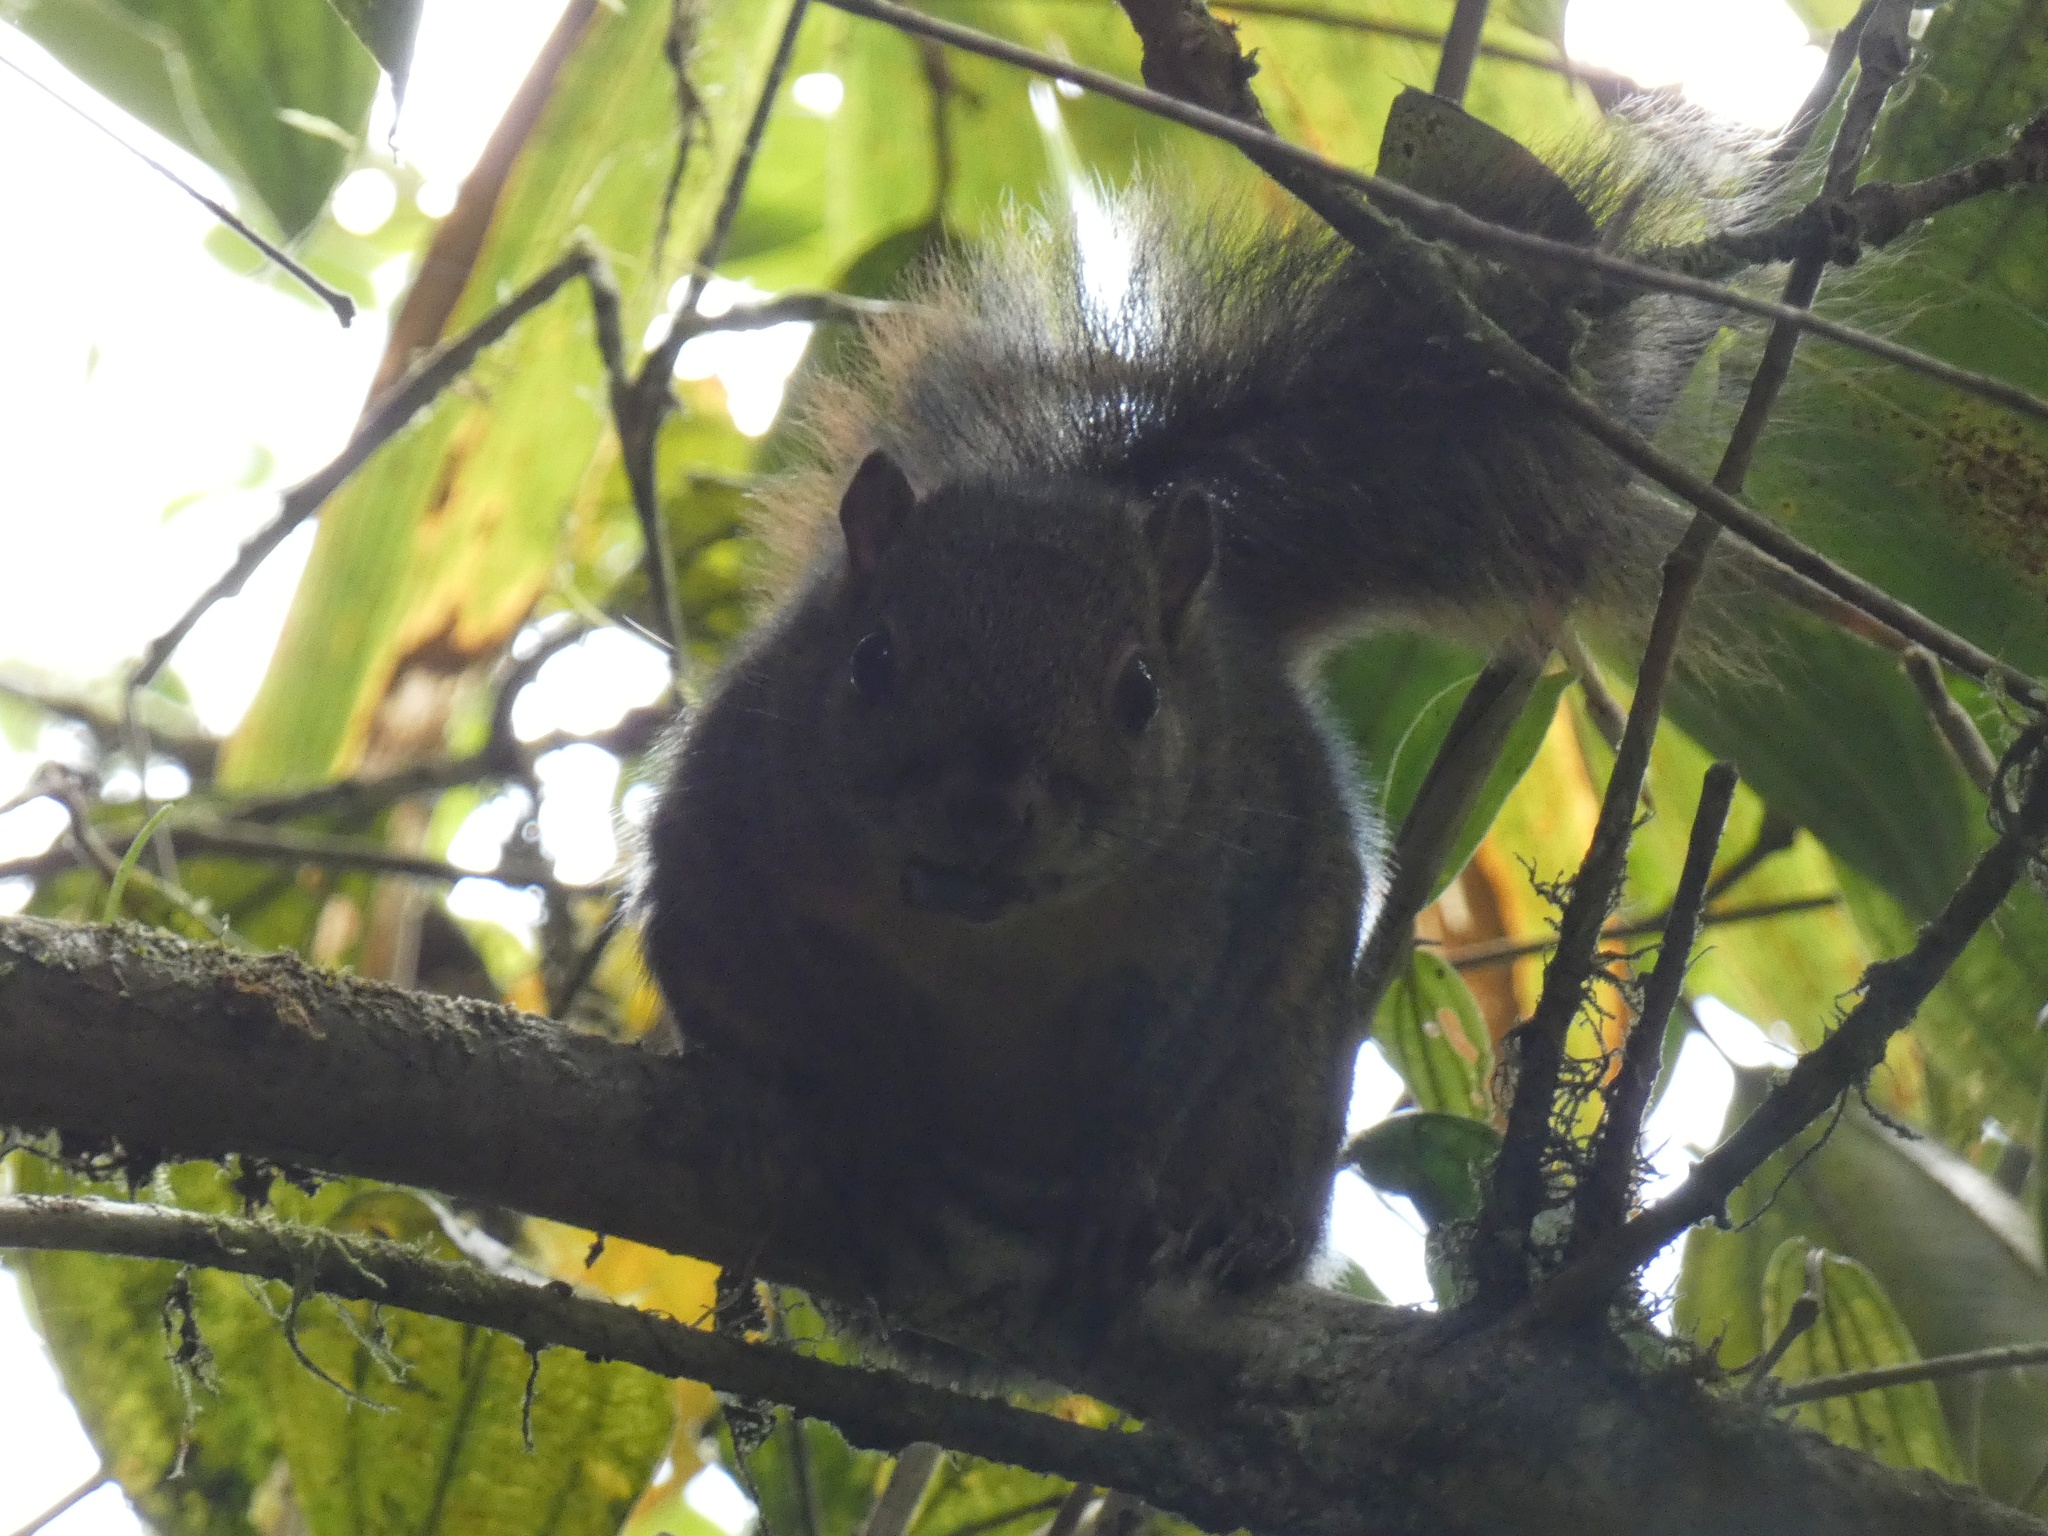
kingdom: Animalia
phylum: Chordata
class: Mammalia
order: Rodentia
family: Sciuridae
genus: Sciurus
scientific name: Sciurus granatensis
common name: Red-tailed squirrel
